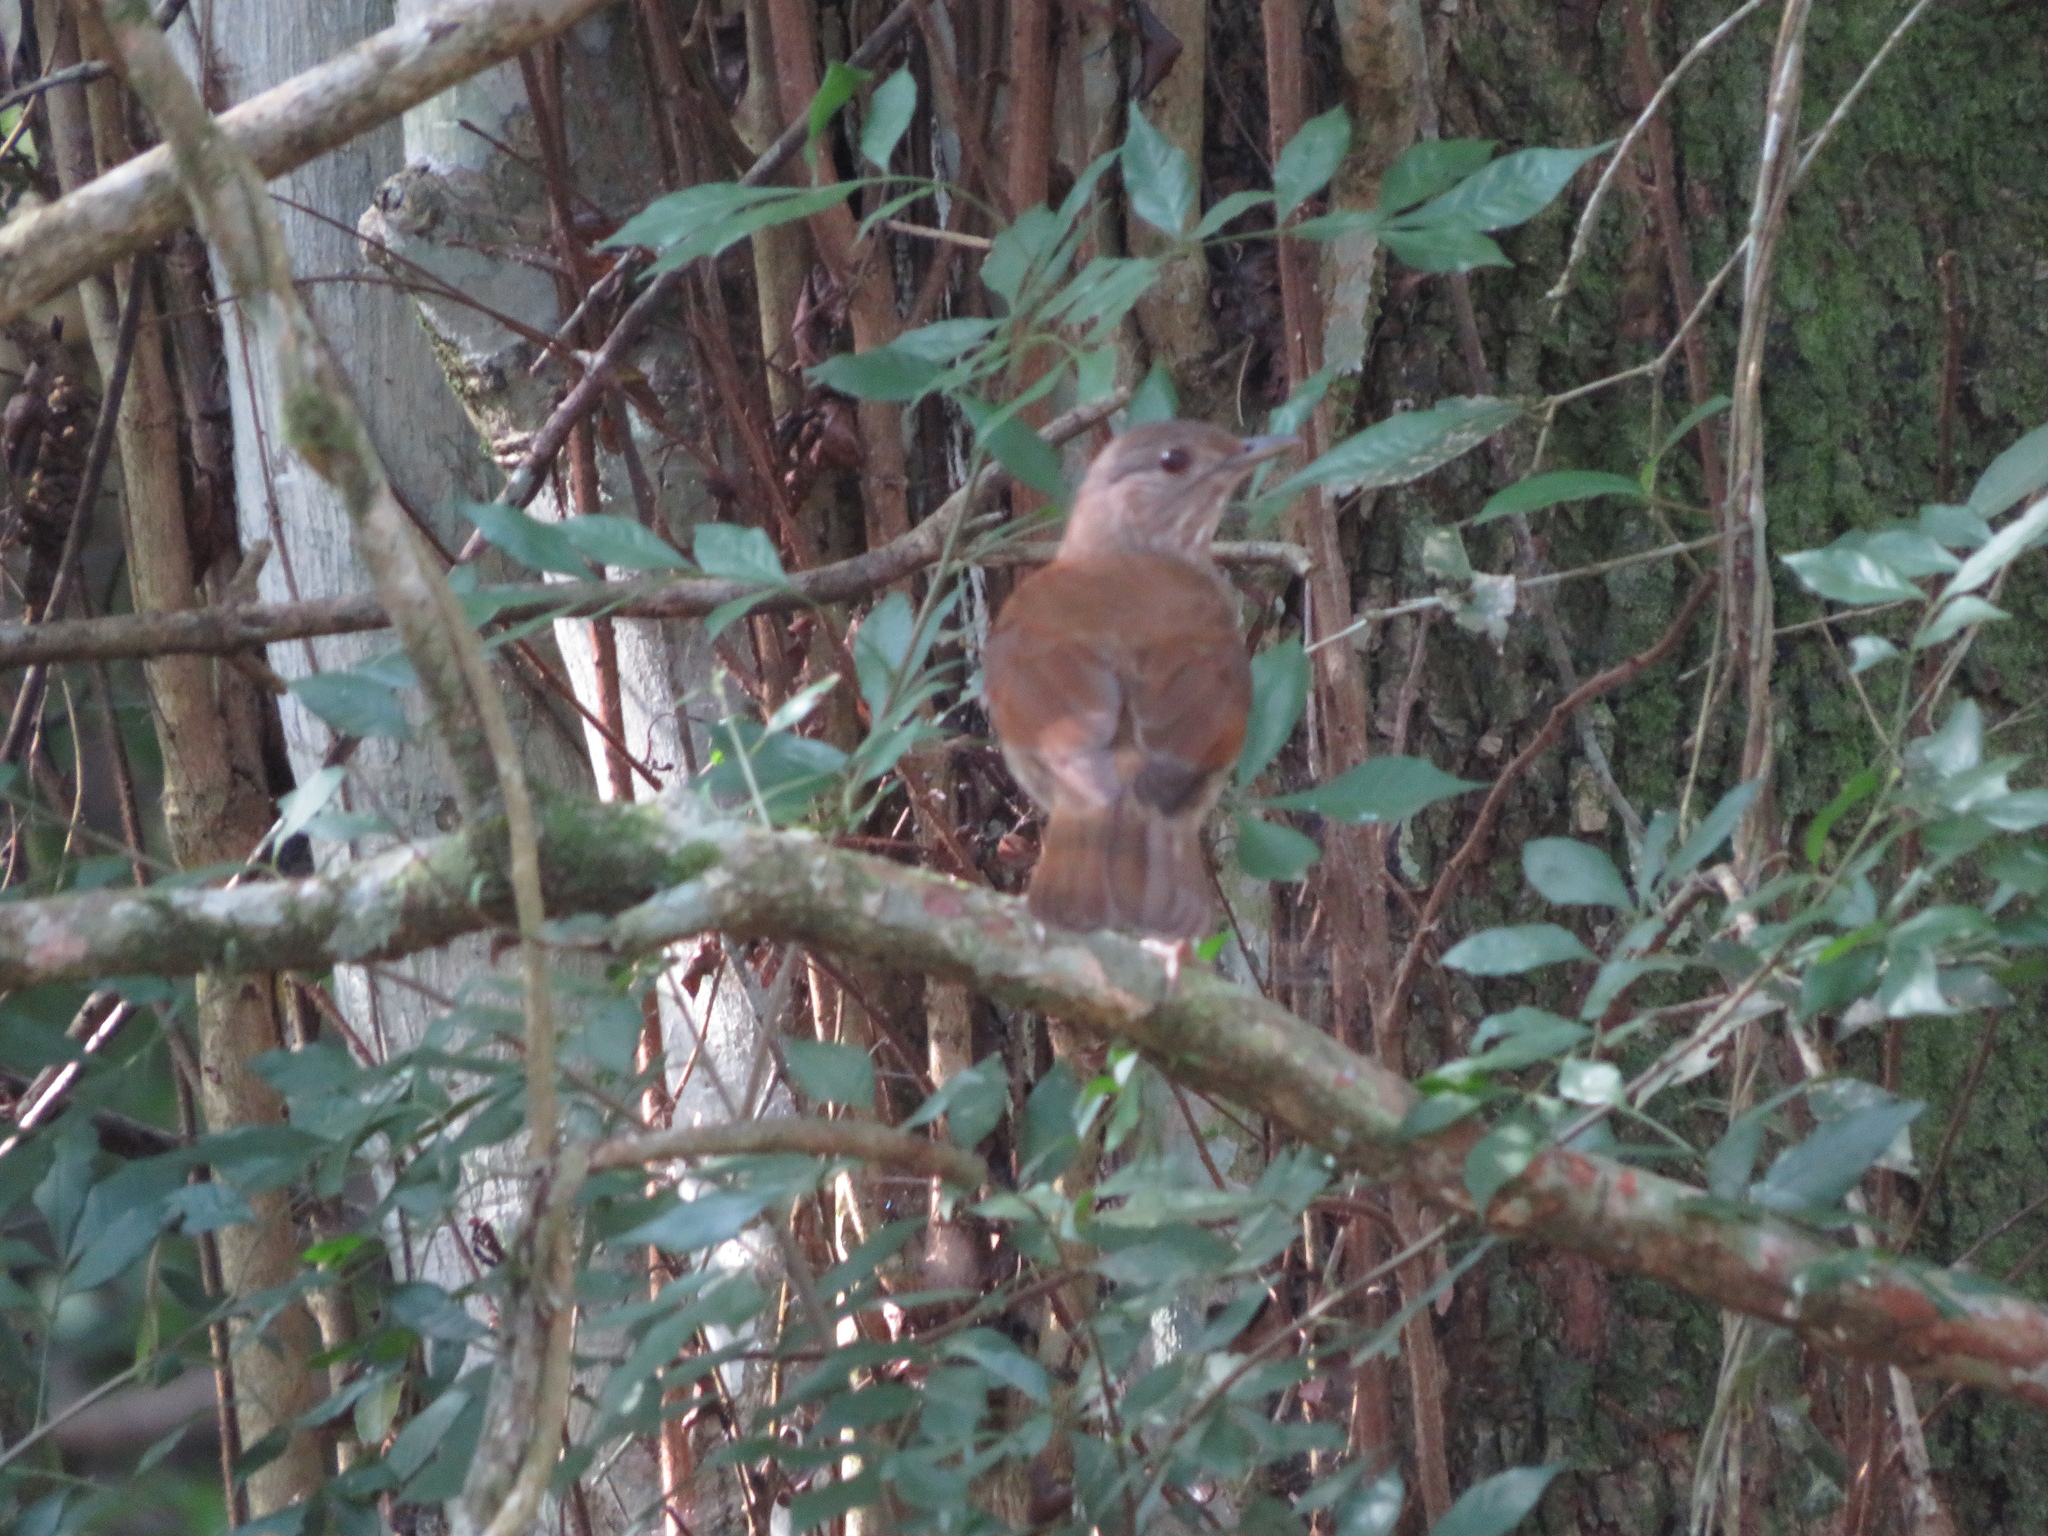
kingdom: Animalia
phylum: Chordata
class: Aves
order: Passeriformes
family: Turdidae
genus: Turdus
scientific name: Turdus leucomelas
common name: Pale-breasted thrush
